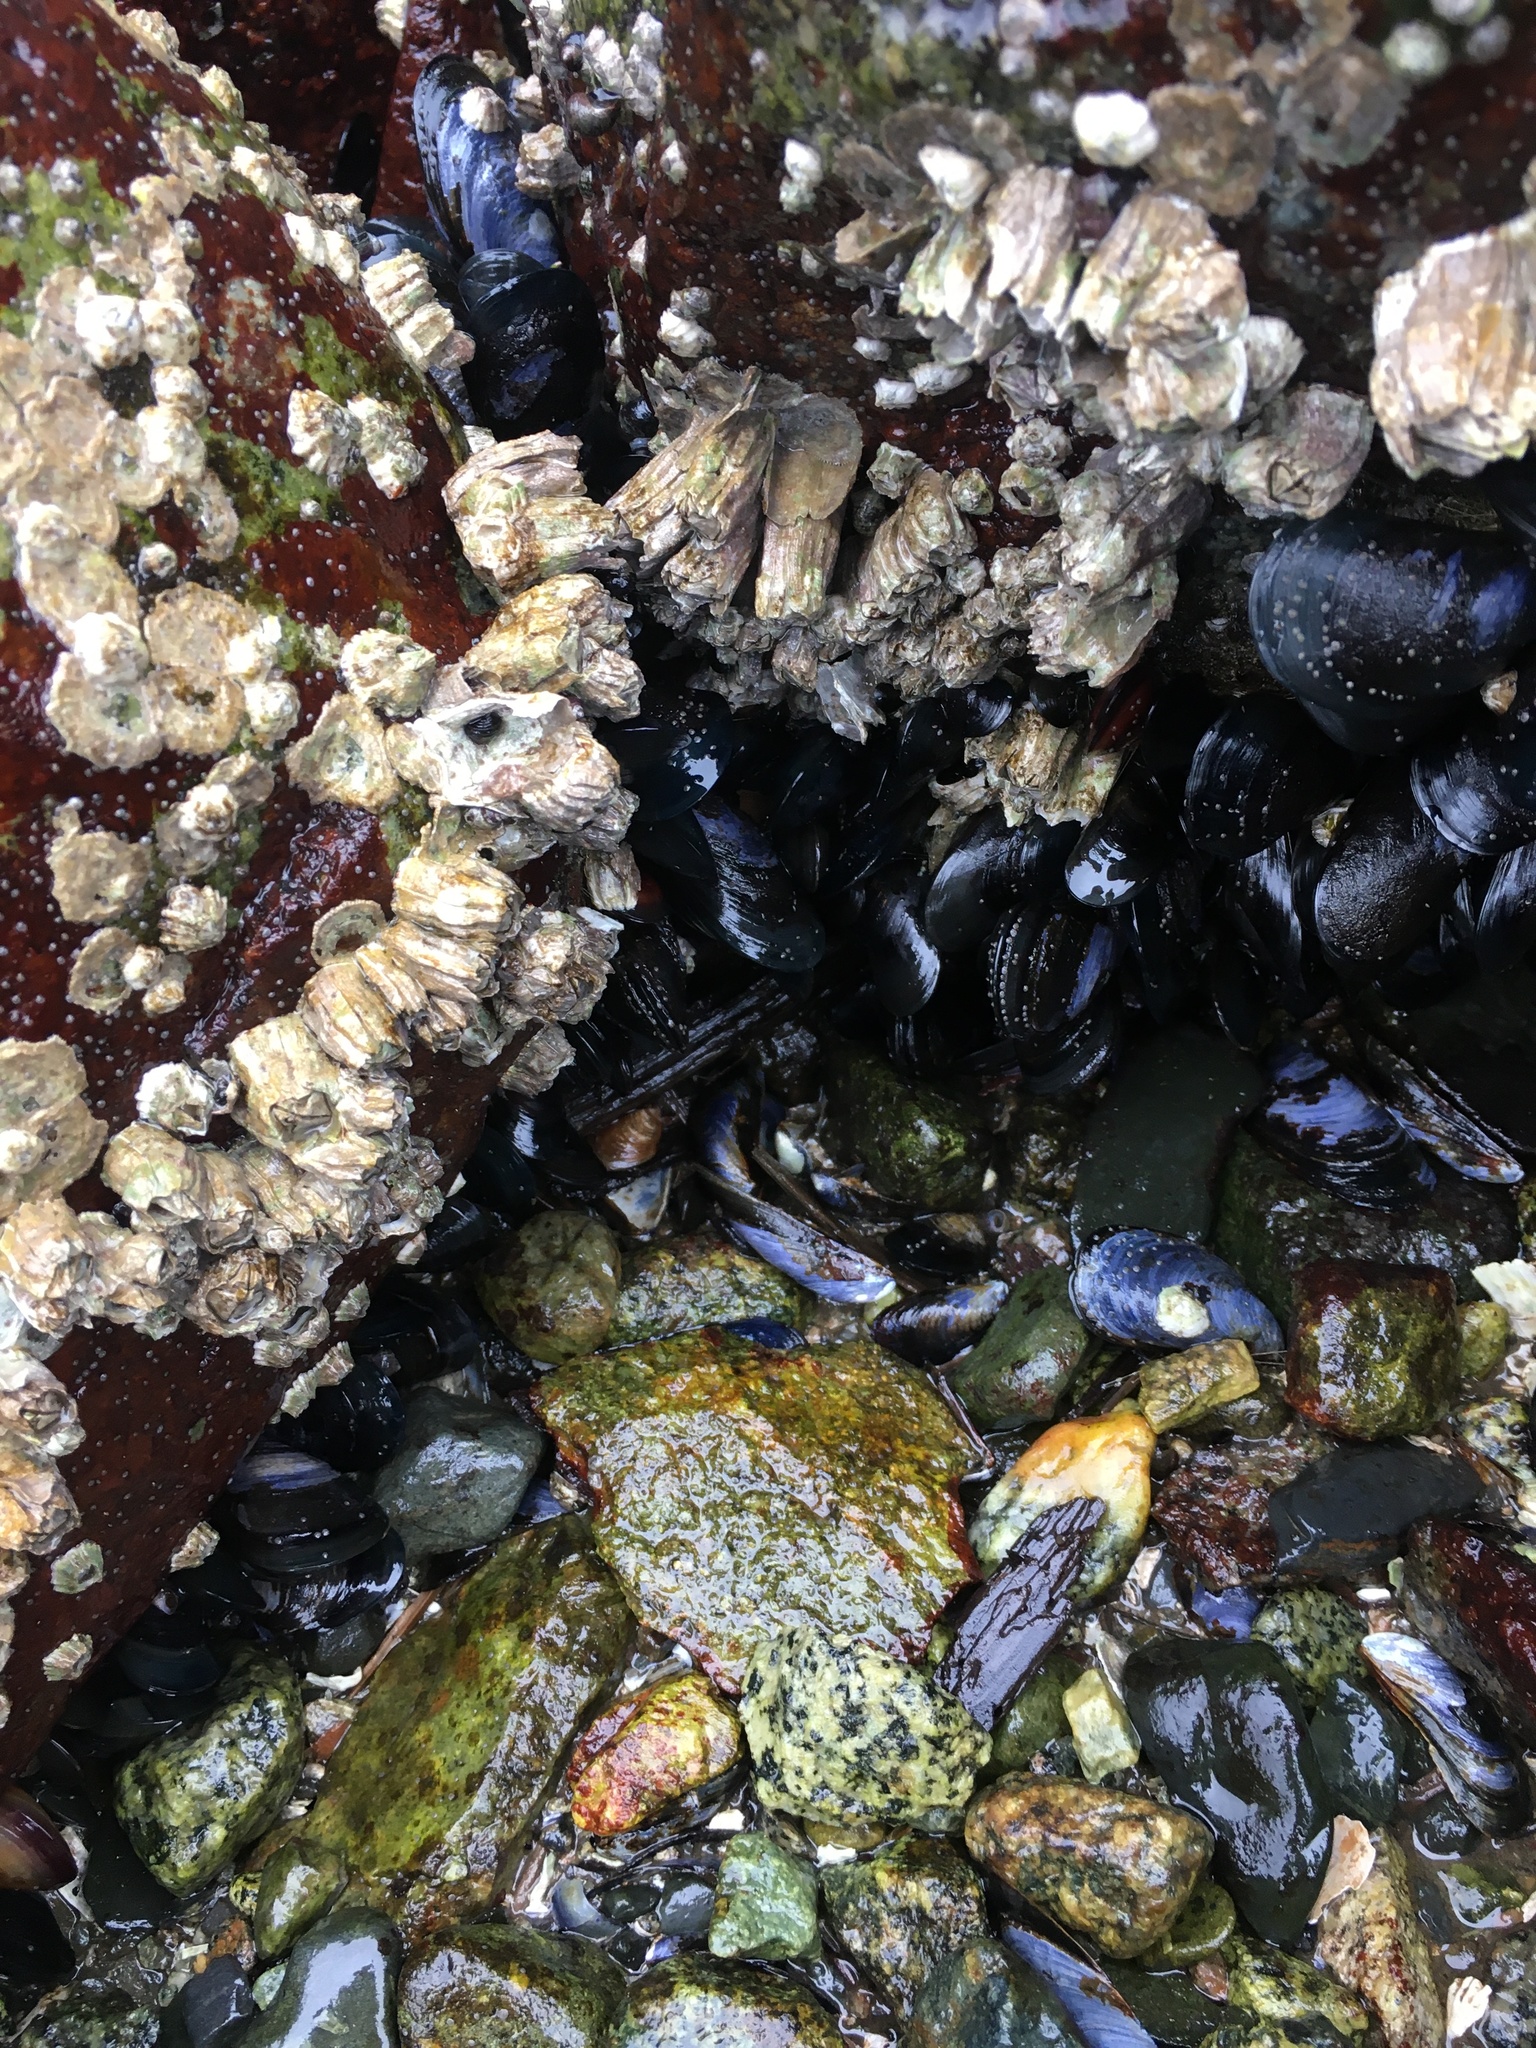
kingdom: Animalia
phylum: Mollusca
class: Bivalvia
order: Mytilida
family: Mytilidae
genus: Mytilus
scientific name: Mytilus
